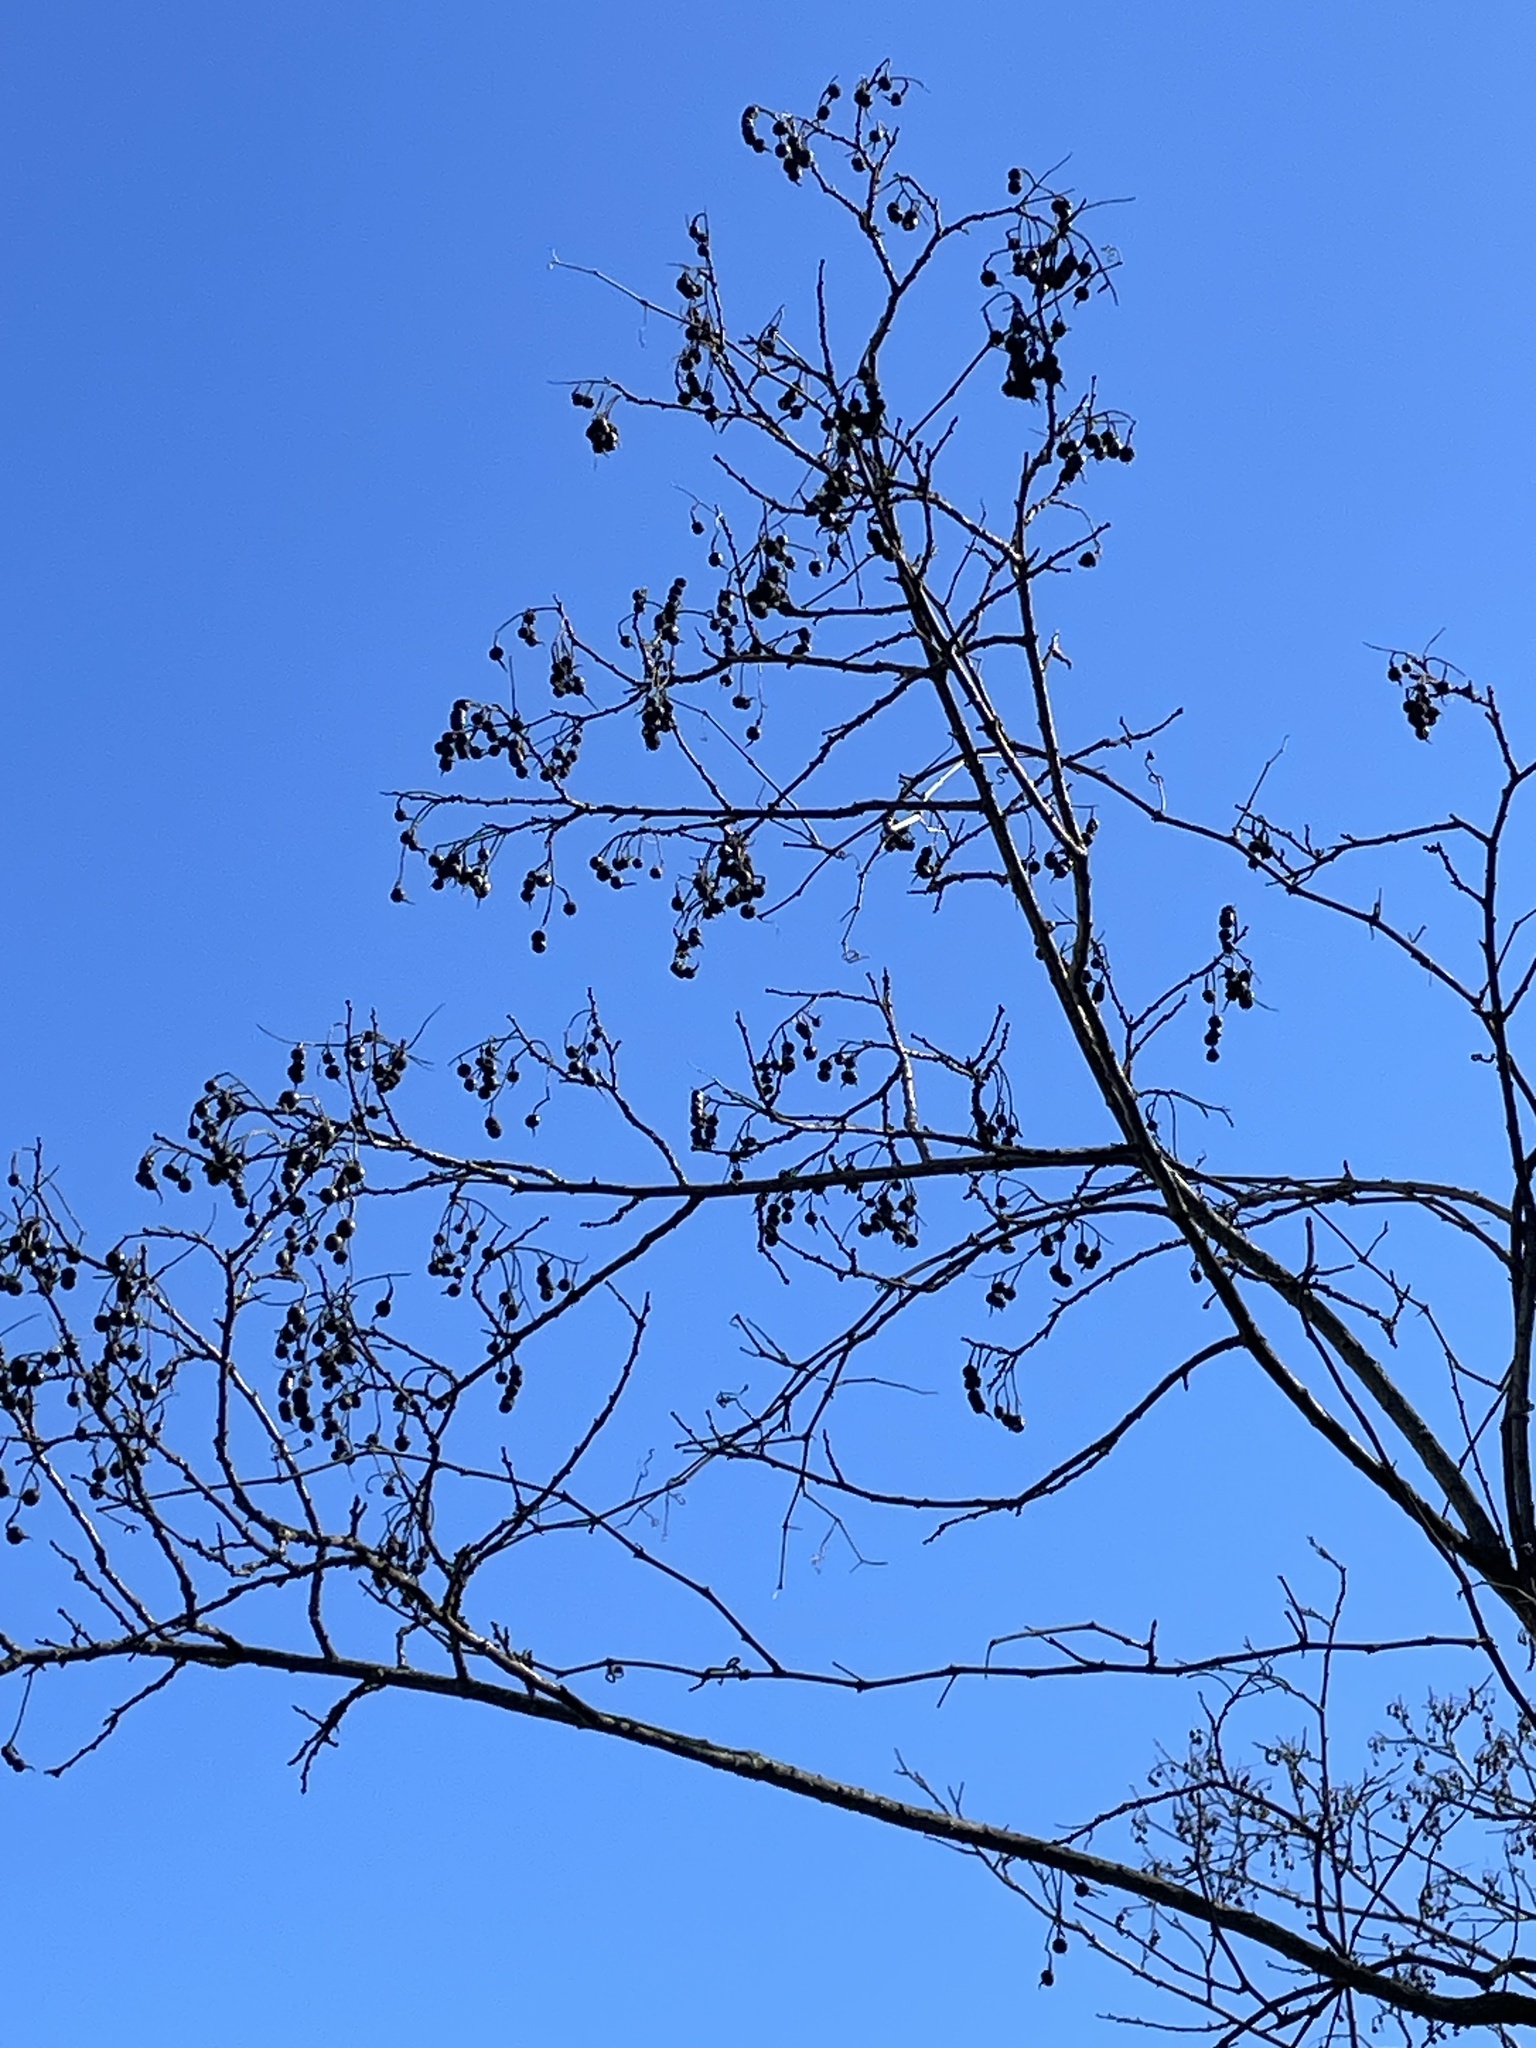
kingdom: Plantae
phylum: Tracheophyta
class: Magnoliopsida
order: Fabales
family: Fabaceae
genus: Styphnolobium
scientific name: Styphnolobium affine
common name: Texas sophora
